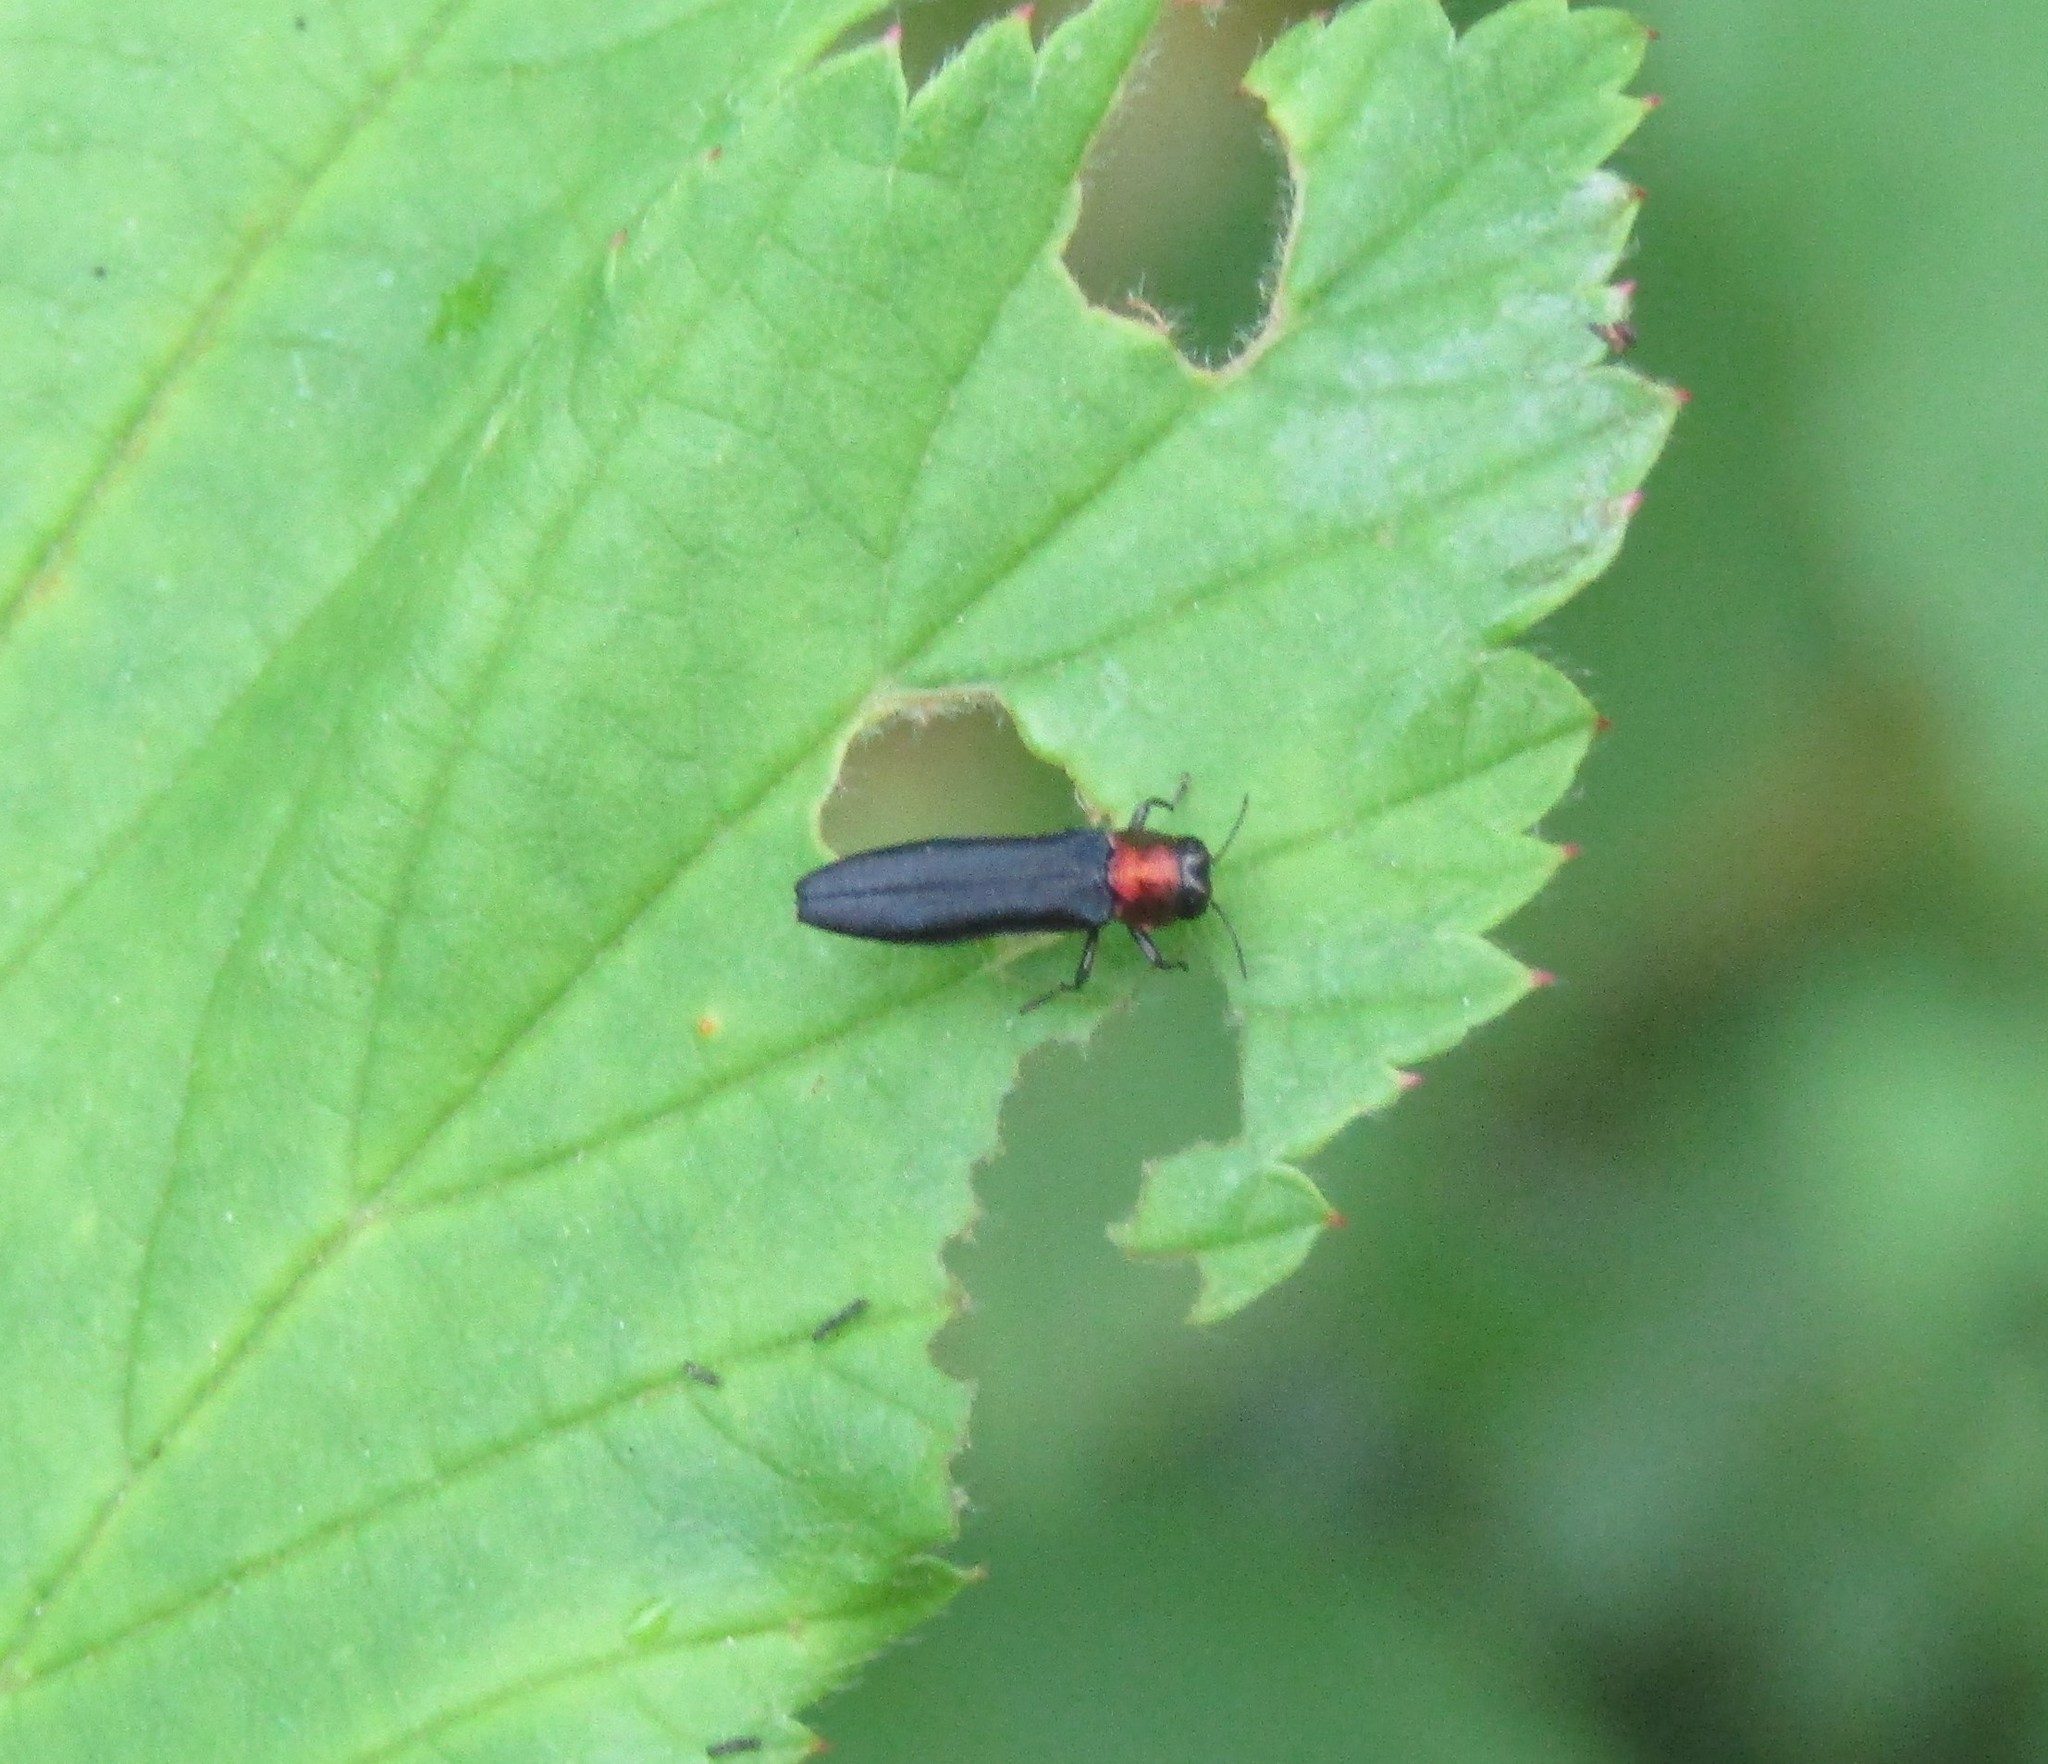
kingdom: Animalia
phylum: Arthropoda
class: Insecta
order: Coleoptera
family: Buprestidae
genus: Agrilus
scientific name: Agrilus ruficollis
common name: Red-necked cane borer beetle
